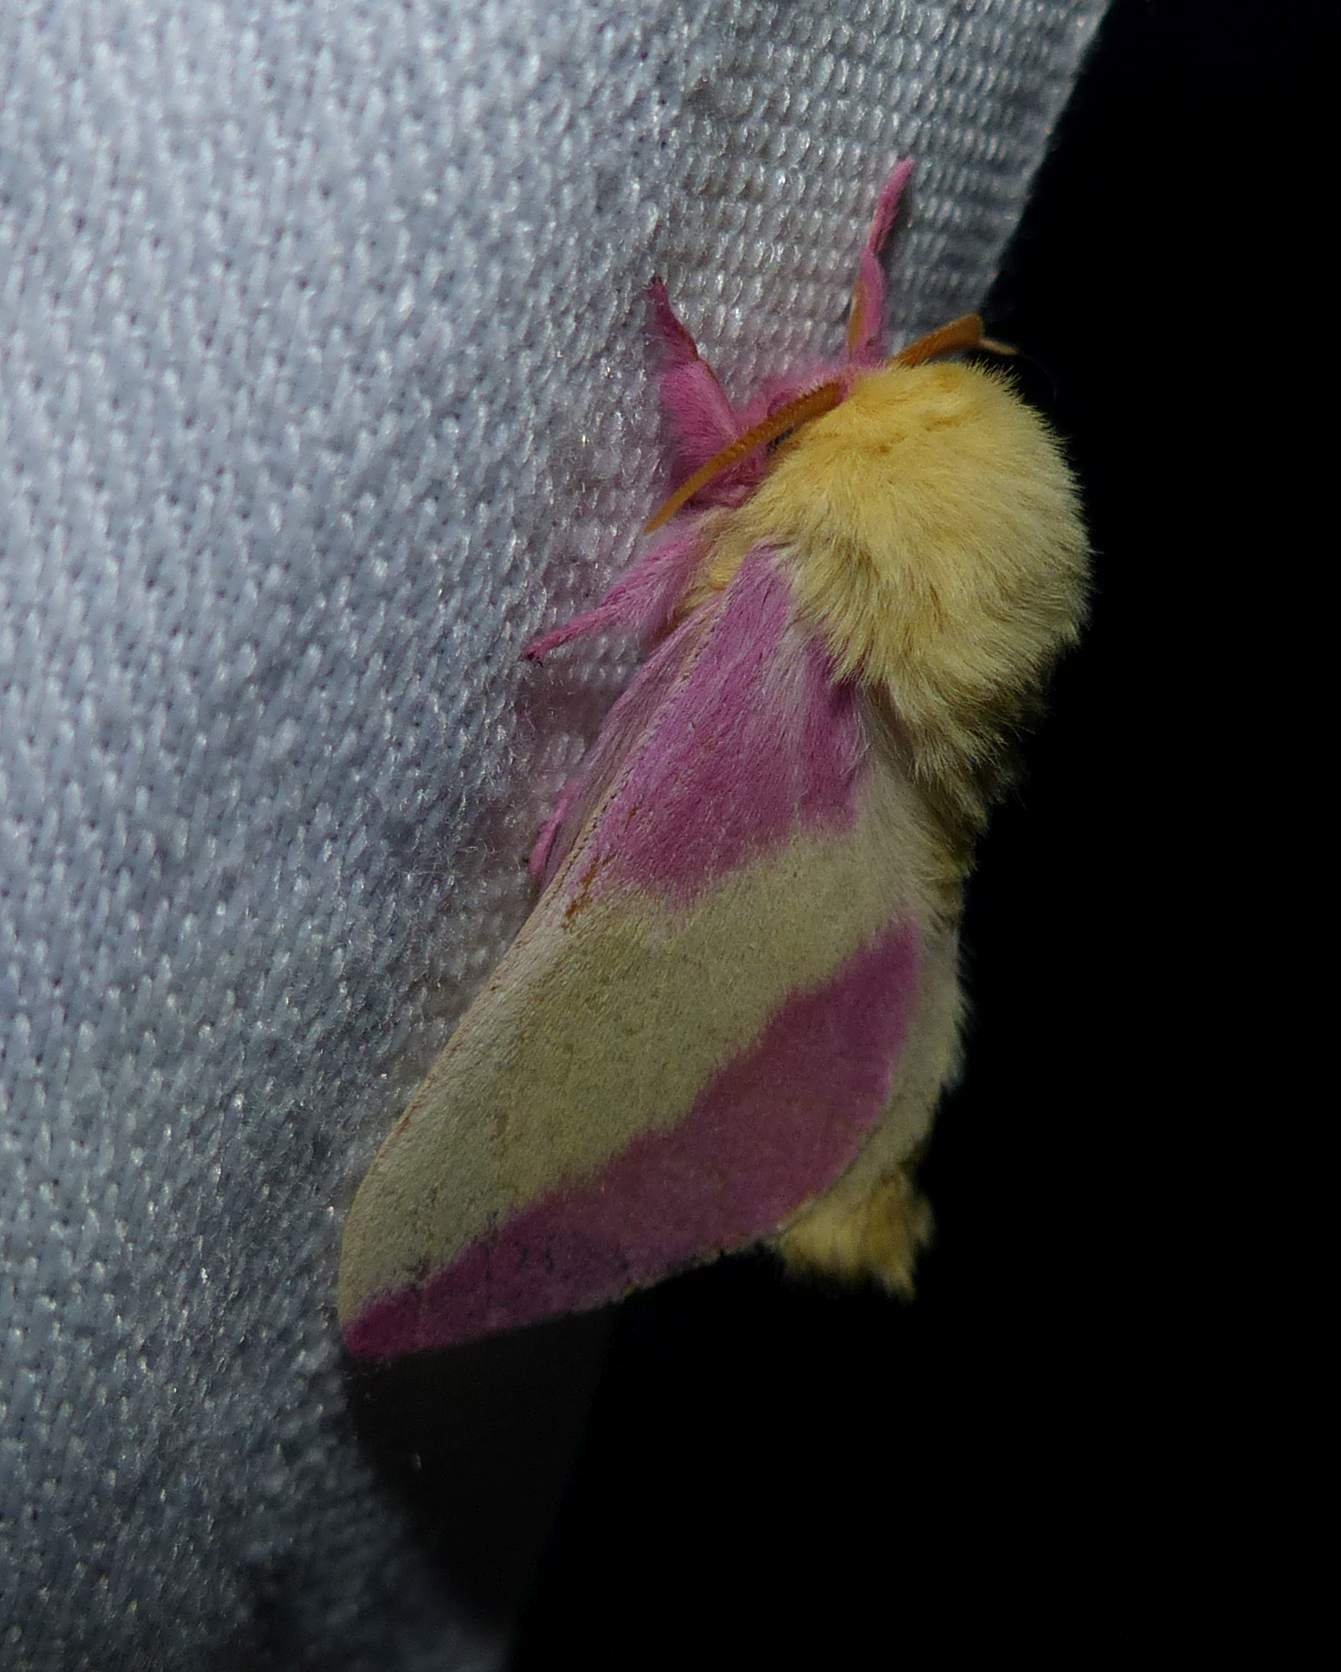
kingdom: Animalia
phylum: Arthropoda
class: Insecta
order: Lepidoptera
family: Saturniidae
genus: Dryocampa
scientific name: Dryocampa rubicunda
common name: Rosy maple moth
